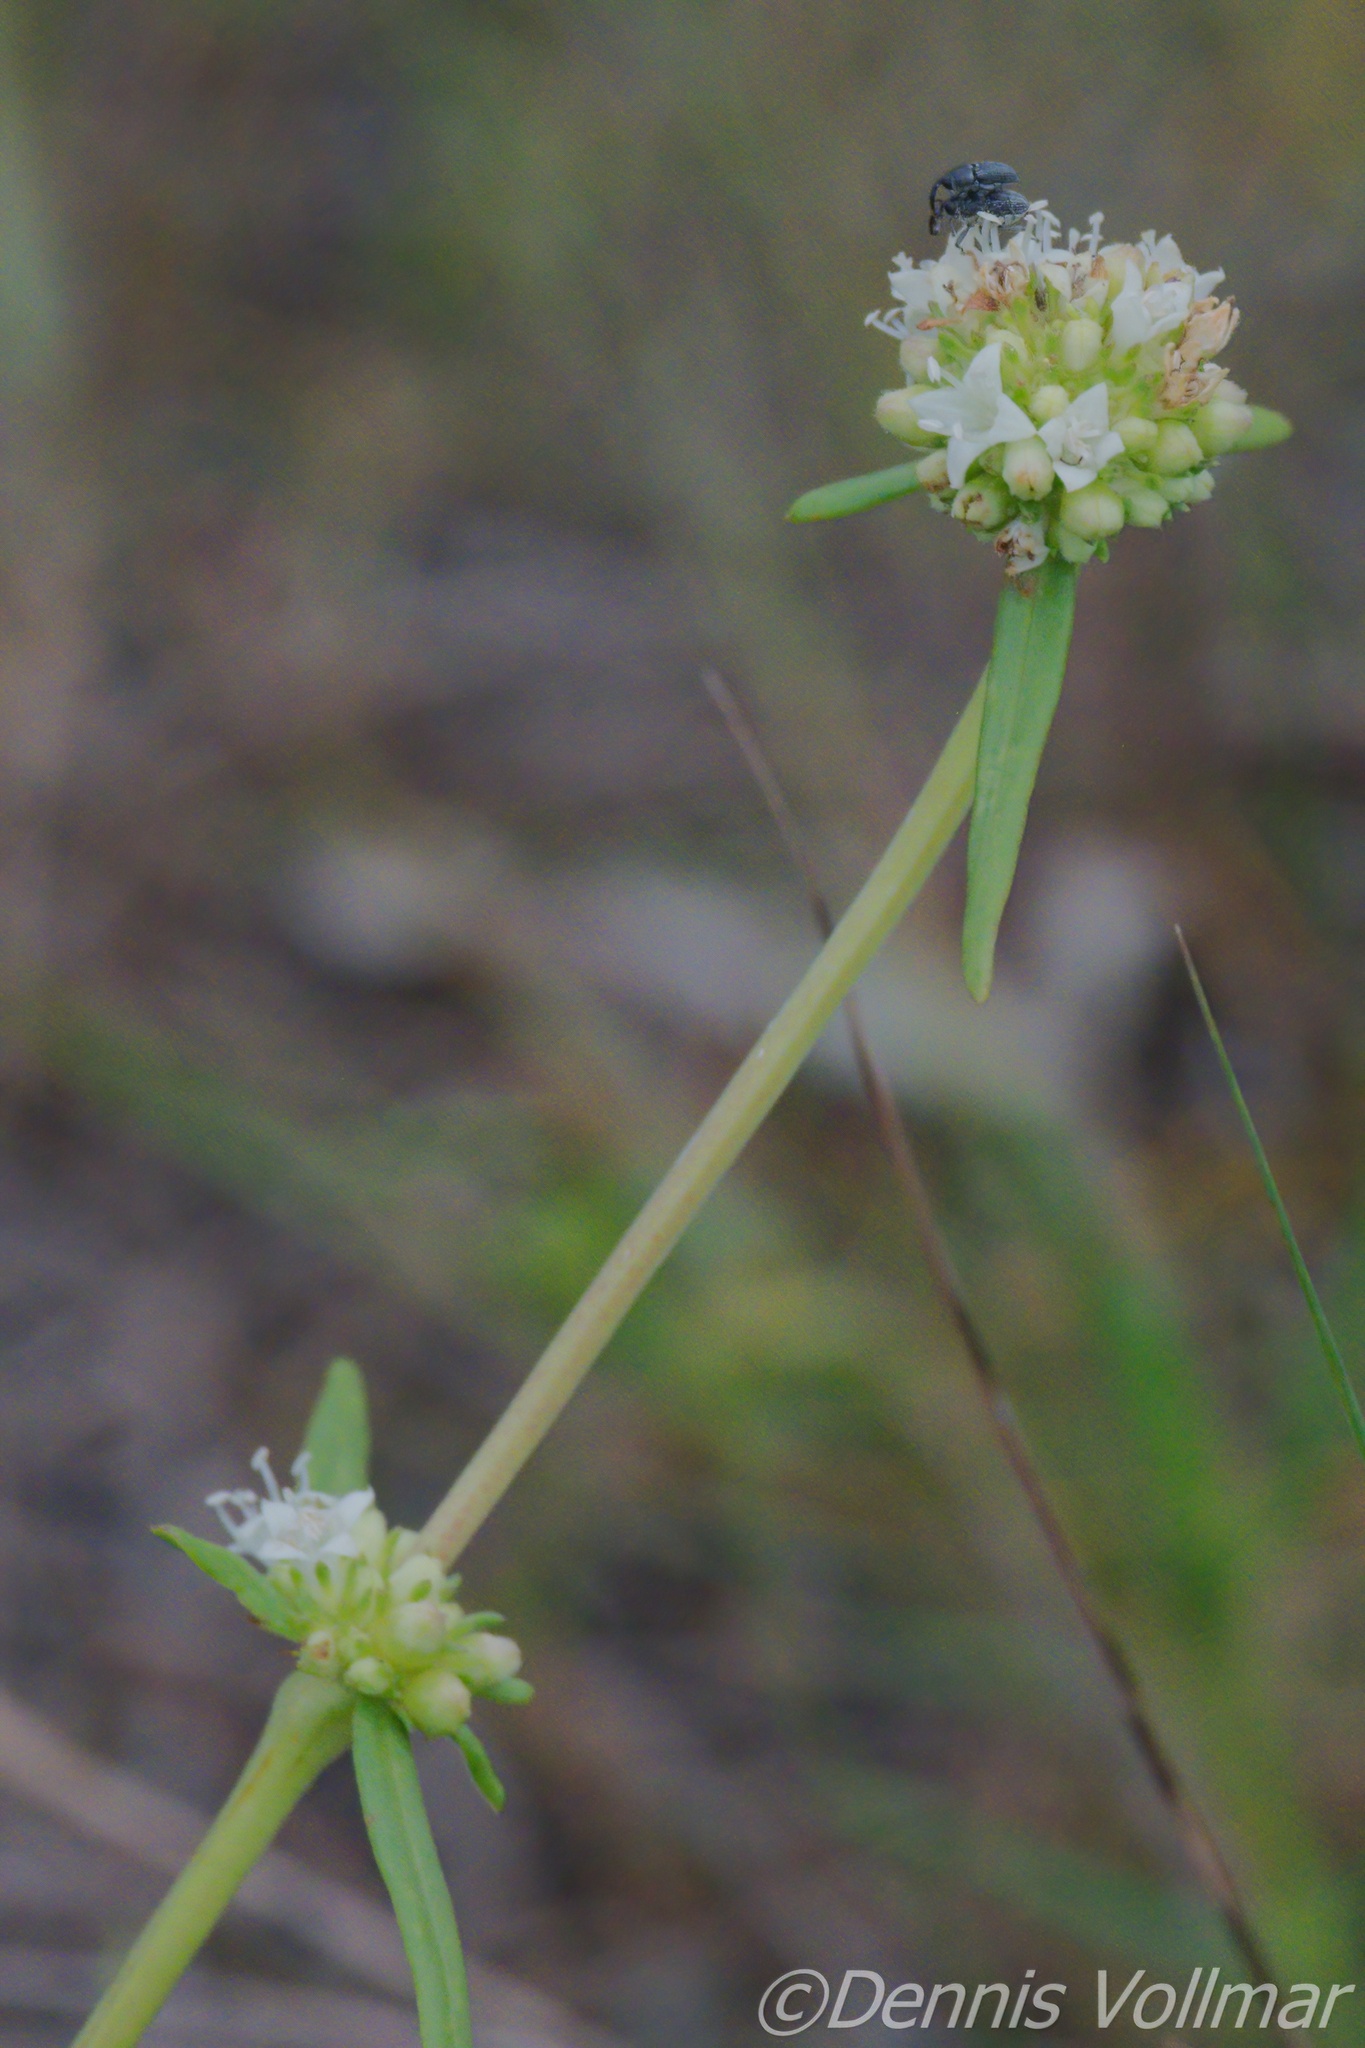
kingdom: Plantae
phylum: Tracheophyta
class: Magnoliopsida
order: Gentianales
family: Rubiaceae
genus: Spermacoce
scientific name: Spermacoce verticillata
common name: Shrubby false buttonweed
